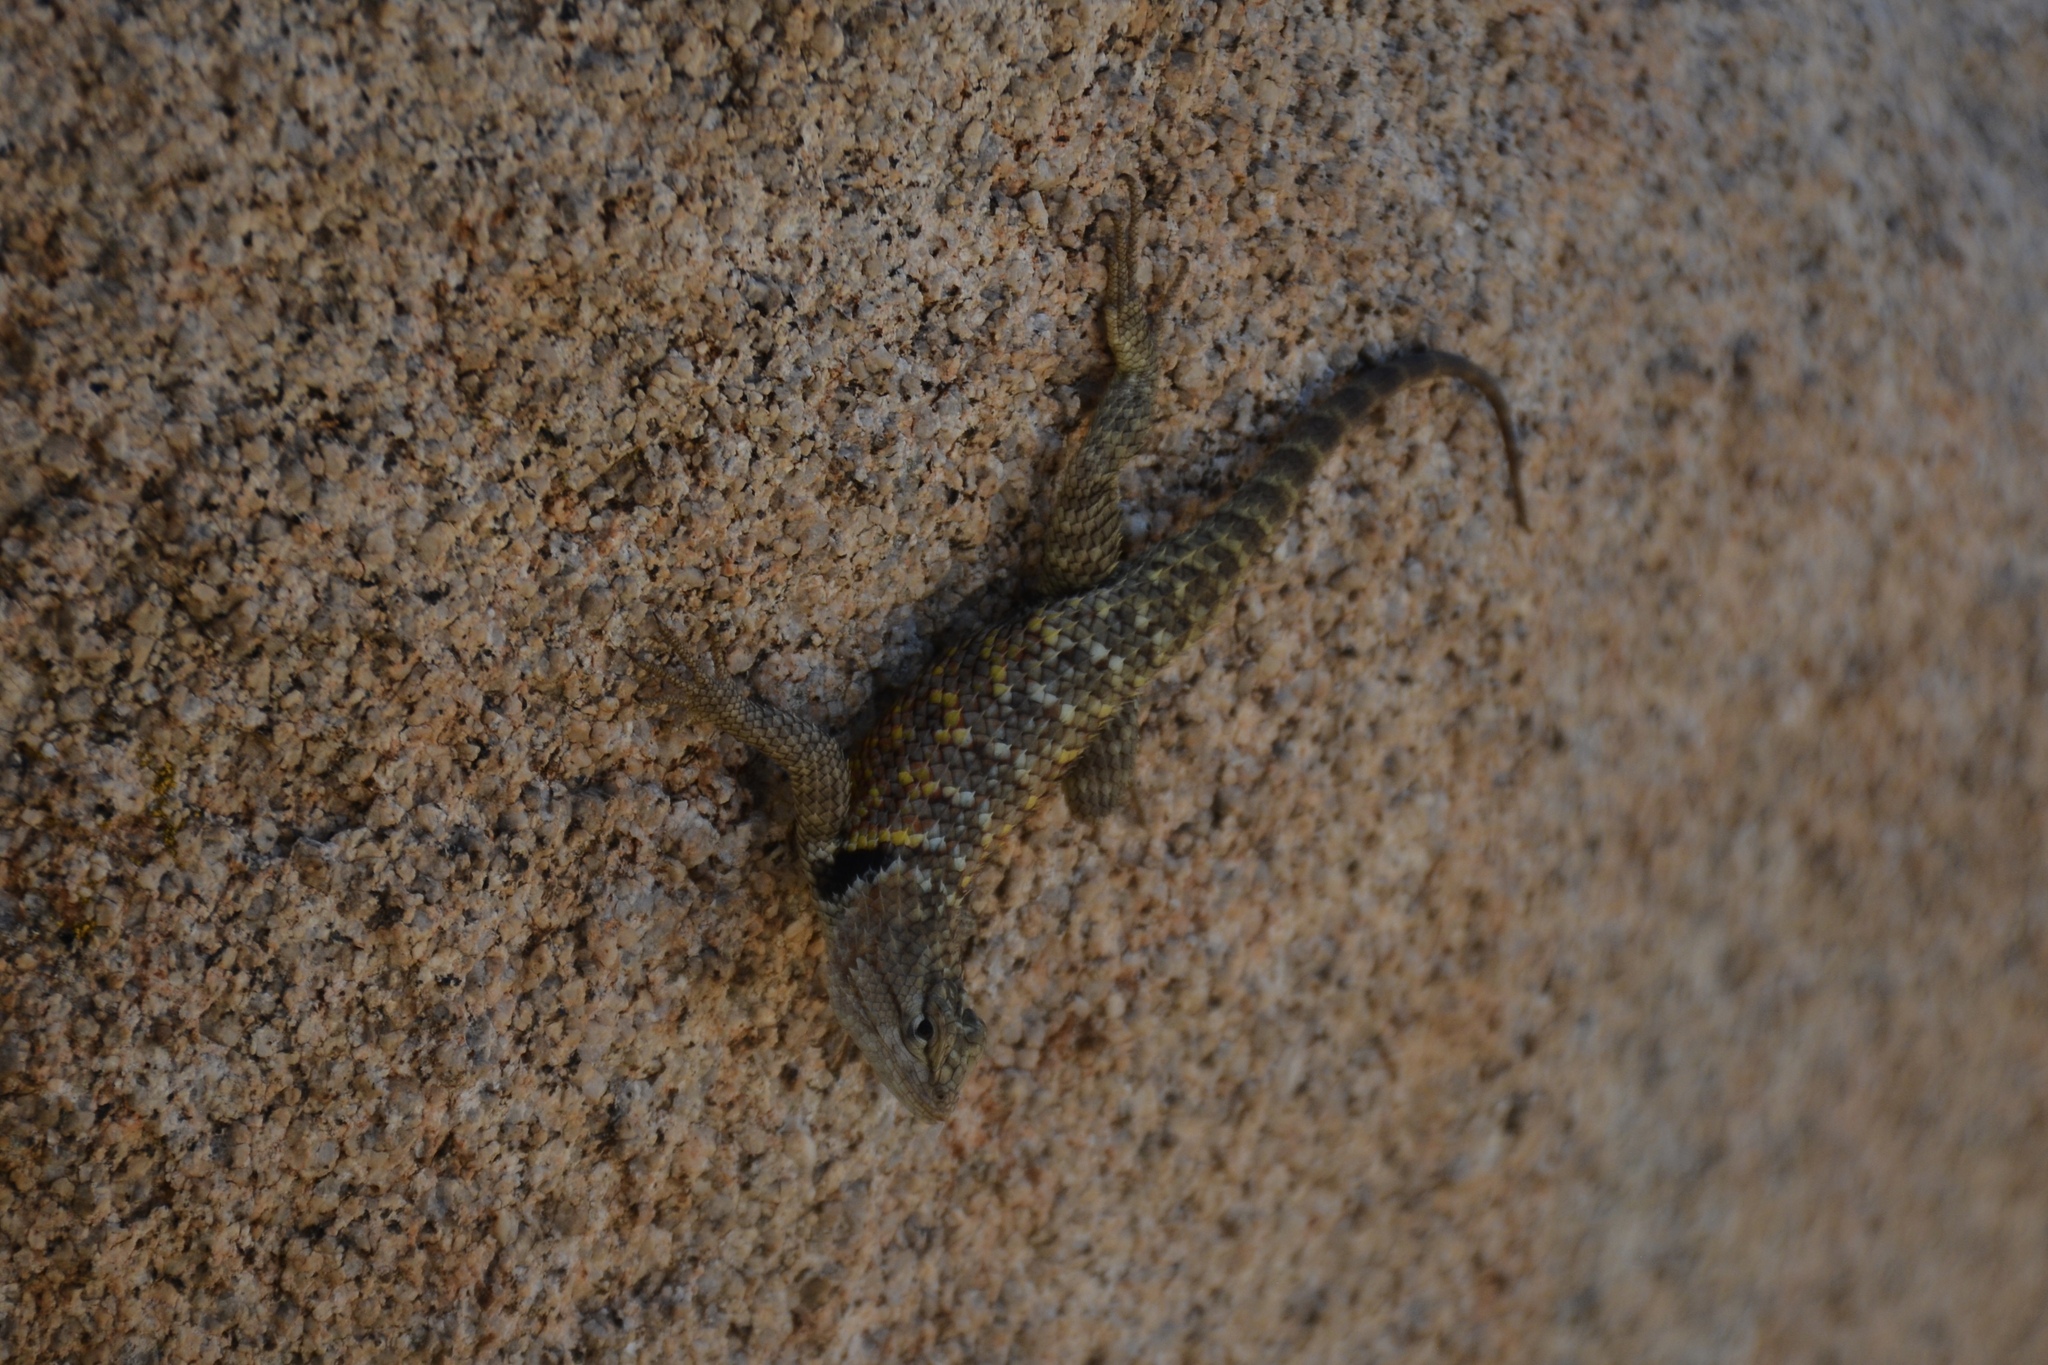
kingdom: Animalia
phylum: Chordata
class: Squamata
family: Phrynosomatidae
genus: Sceloporus
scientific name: Sceloporus magister
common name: Desert spiny lizard
